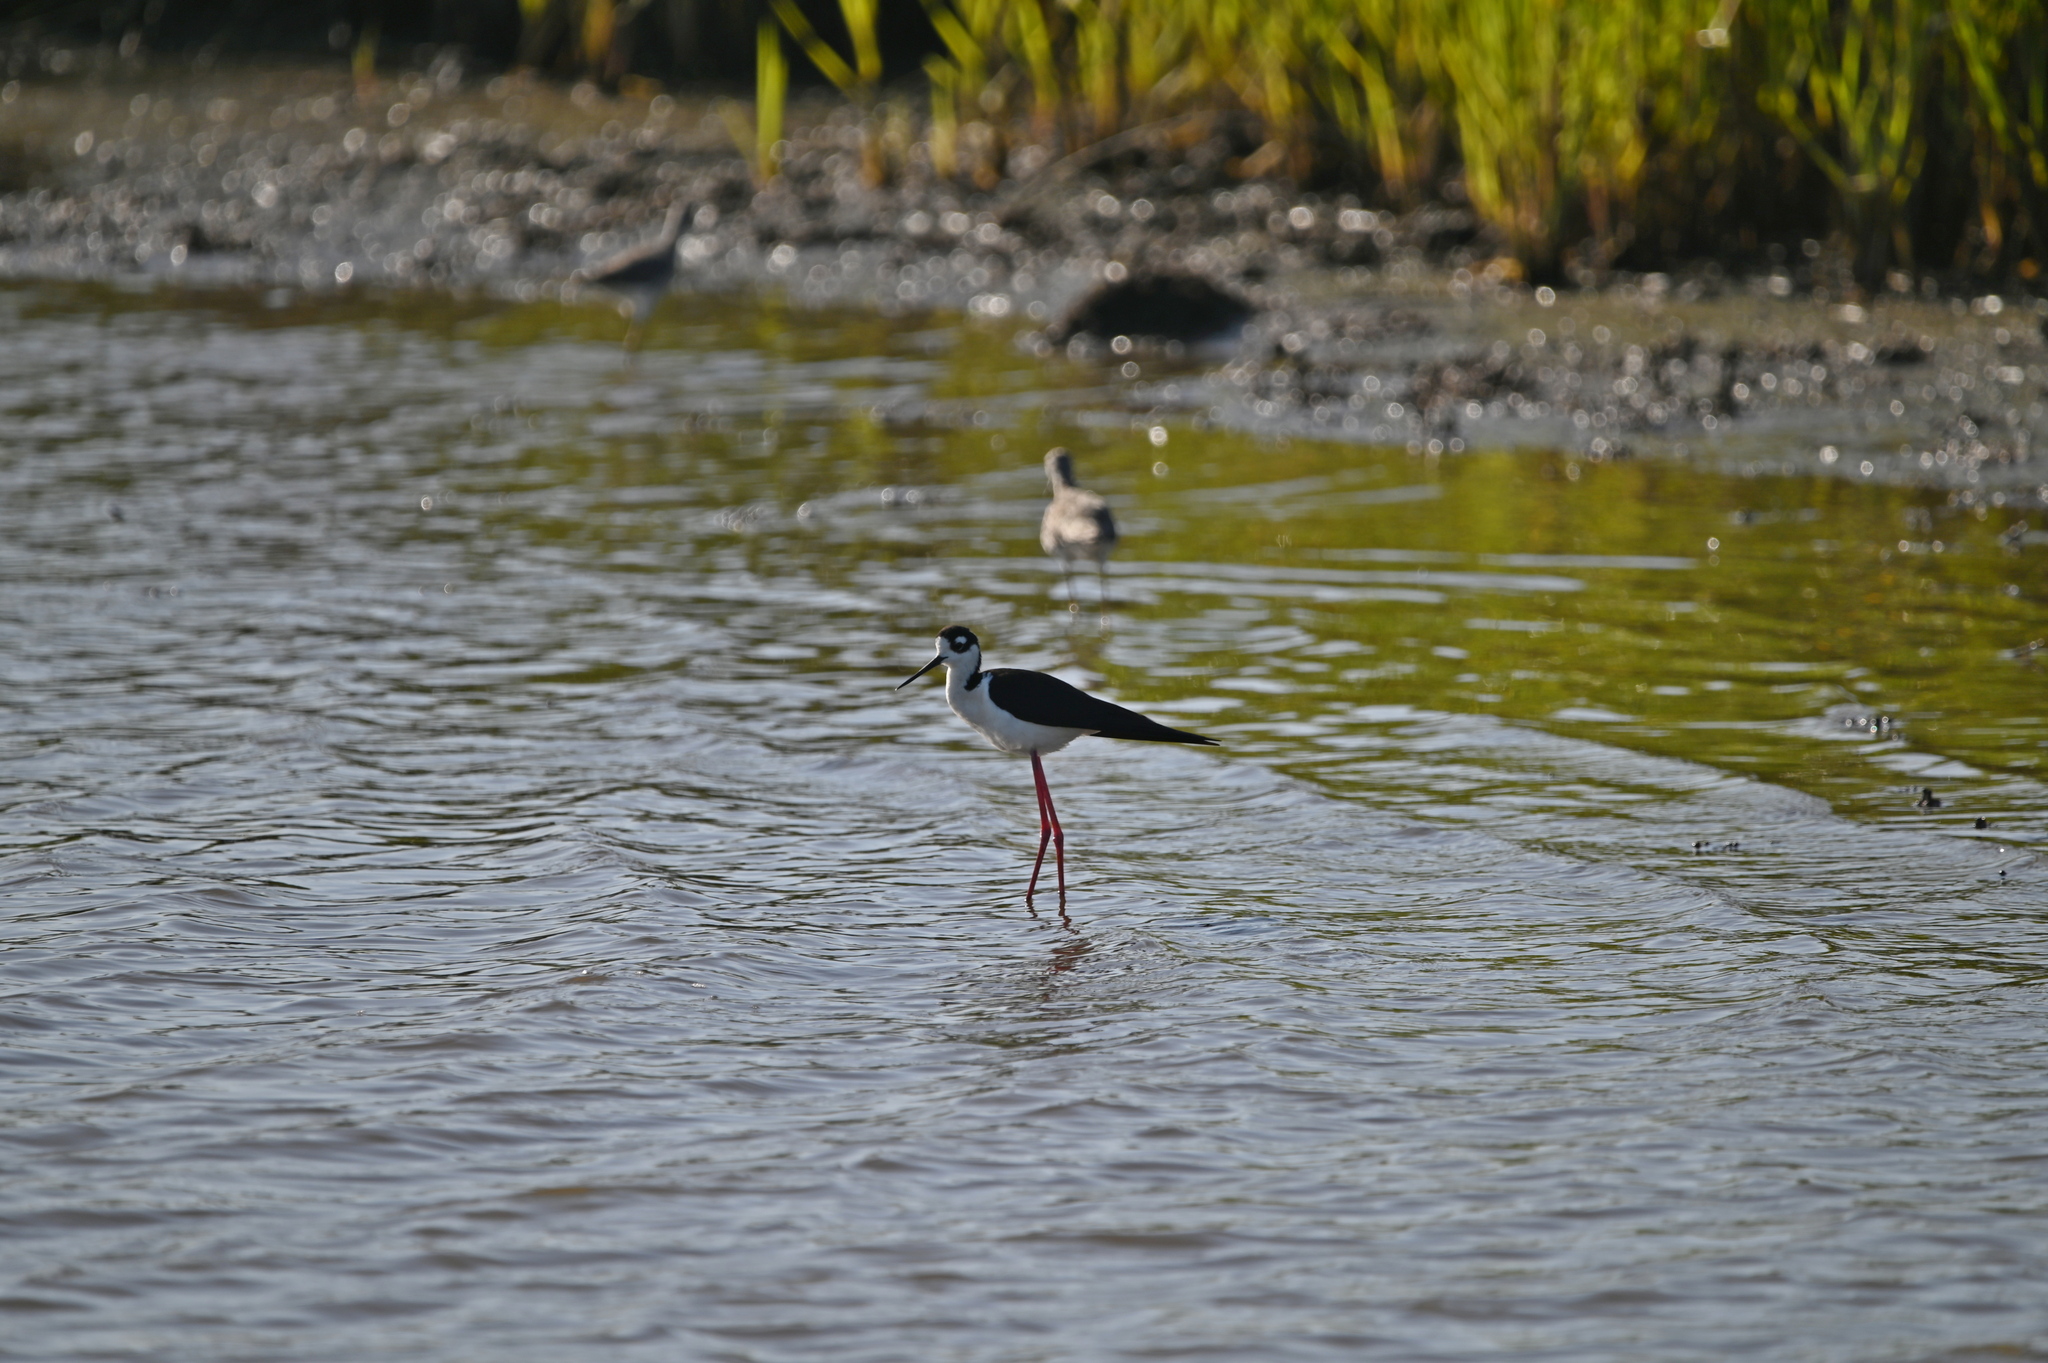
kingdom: Animalia
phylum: Chordata
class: Aves
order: Charadriiformes
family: Recurvirostridae
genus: Himantopus
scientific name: Himantopus mexicanus
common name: Black-necked stilt
